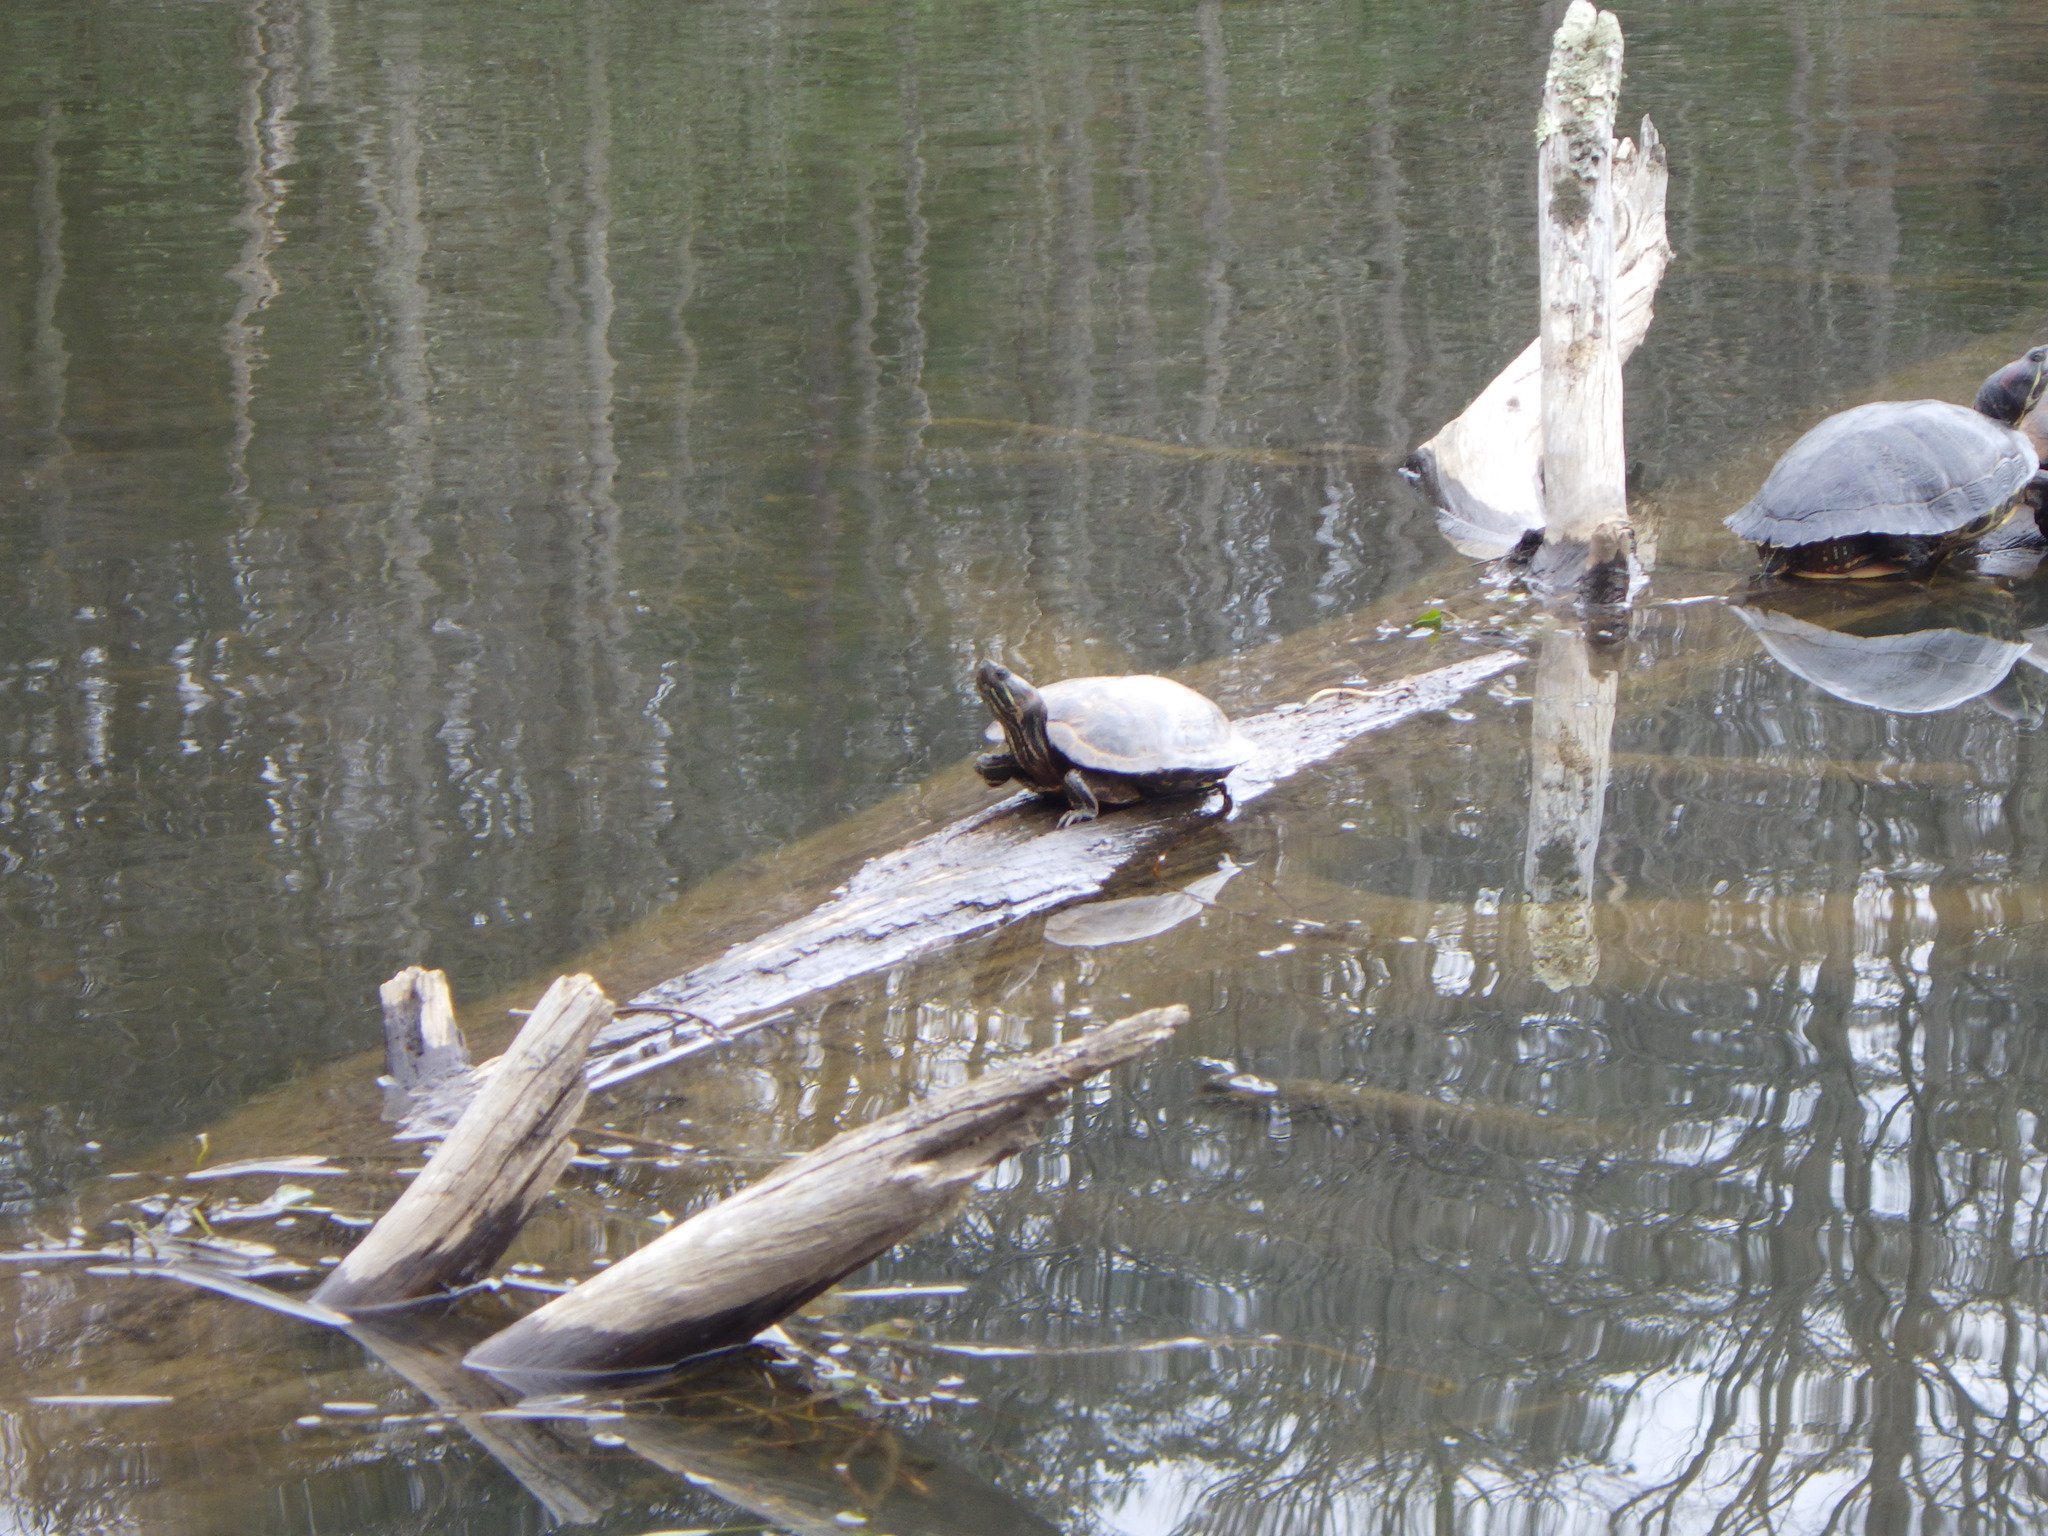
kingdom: Animalia
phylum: Chordata
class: Testudines
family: Emydidae
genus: Trachemys
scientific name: Trachemys scripta
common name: Slider
